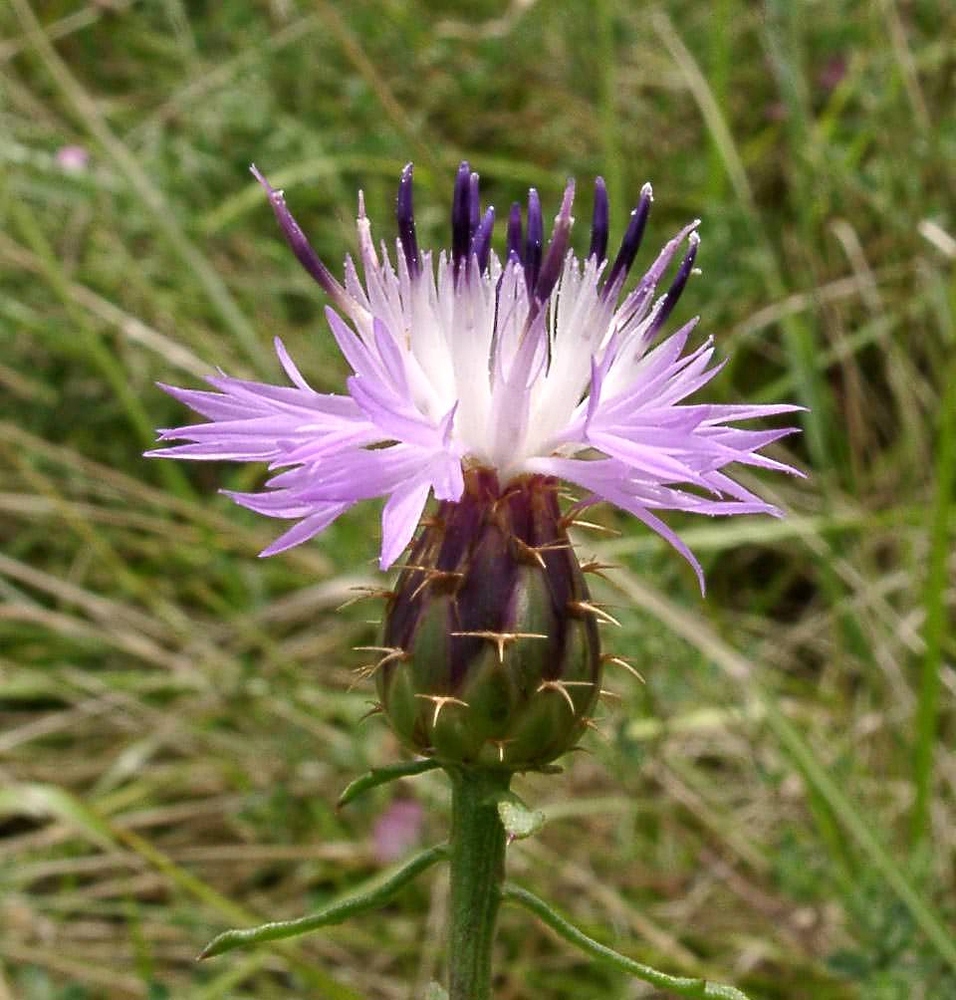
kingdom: Plantae
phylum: Tracheophyta
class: Magnoliopsida
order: Asterales
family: Asteraceae
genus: Centaurea
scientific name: Centaurea aspera
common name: Rough star-thistle
